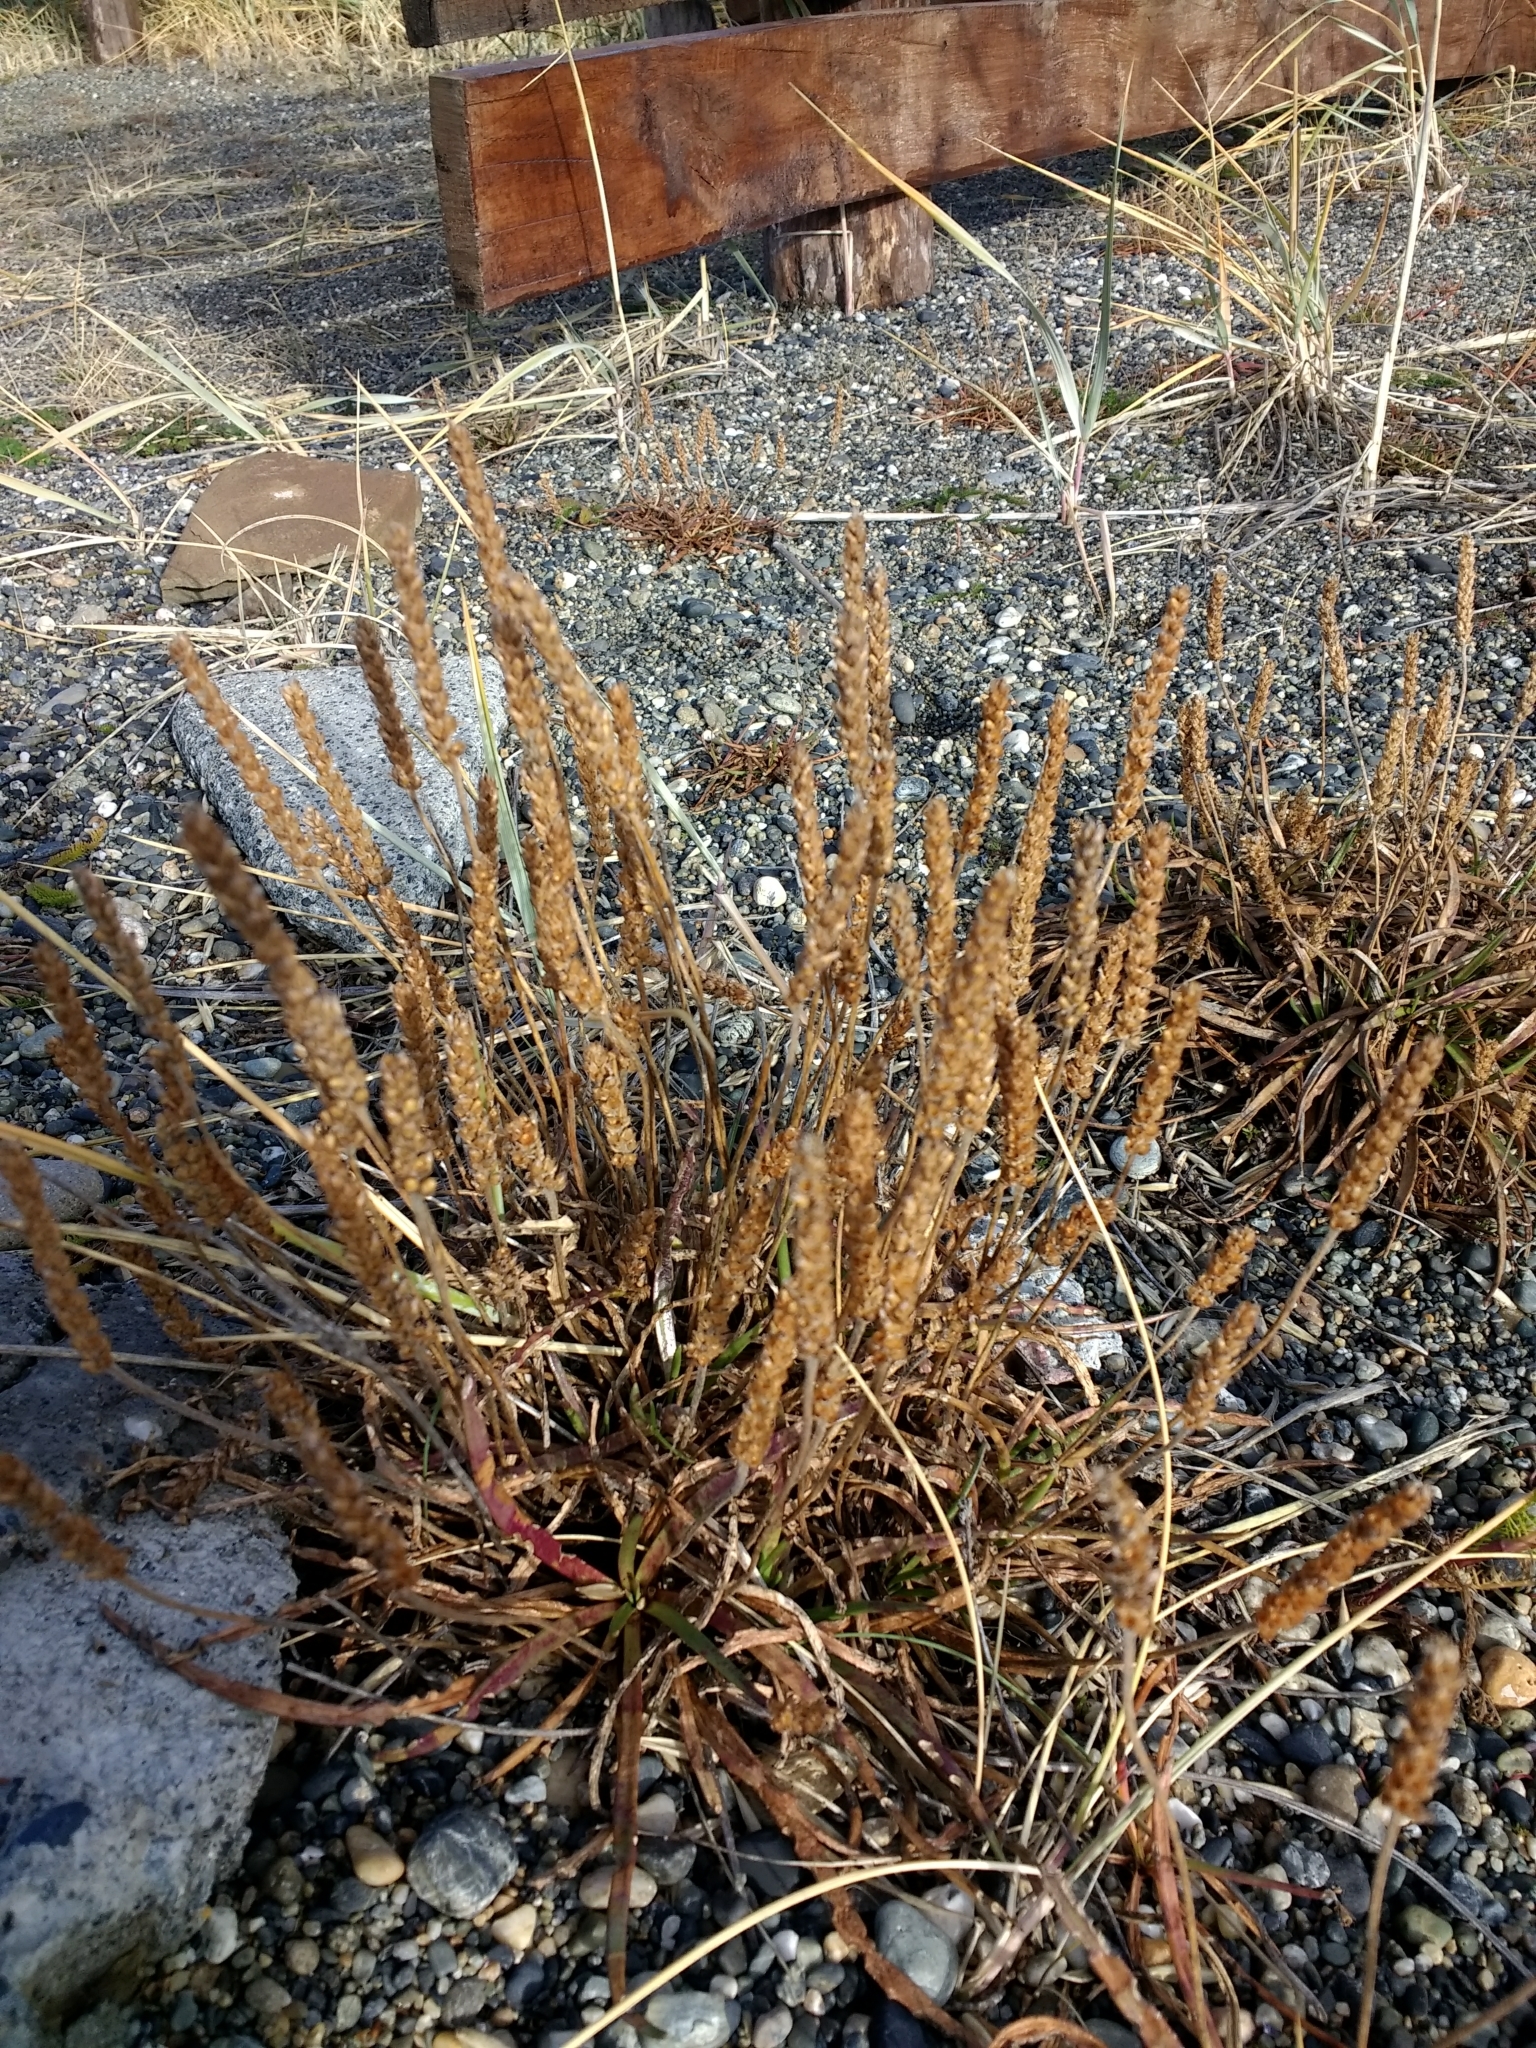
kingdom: Plantae
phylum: Tracheophyta
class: Magnoliopsida
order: Lamiales
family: Plantaginaceae
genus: Plantago
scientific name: Plantago maritima
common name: Sea plantain
